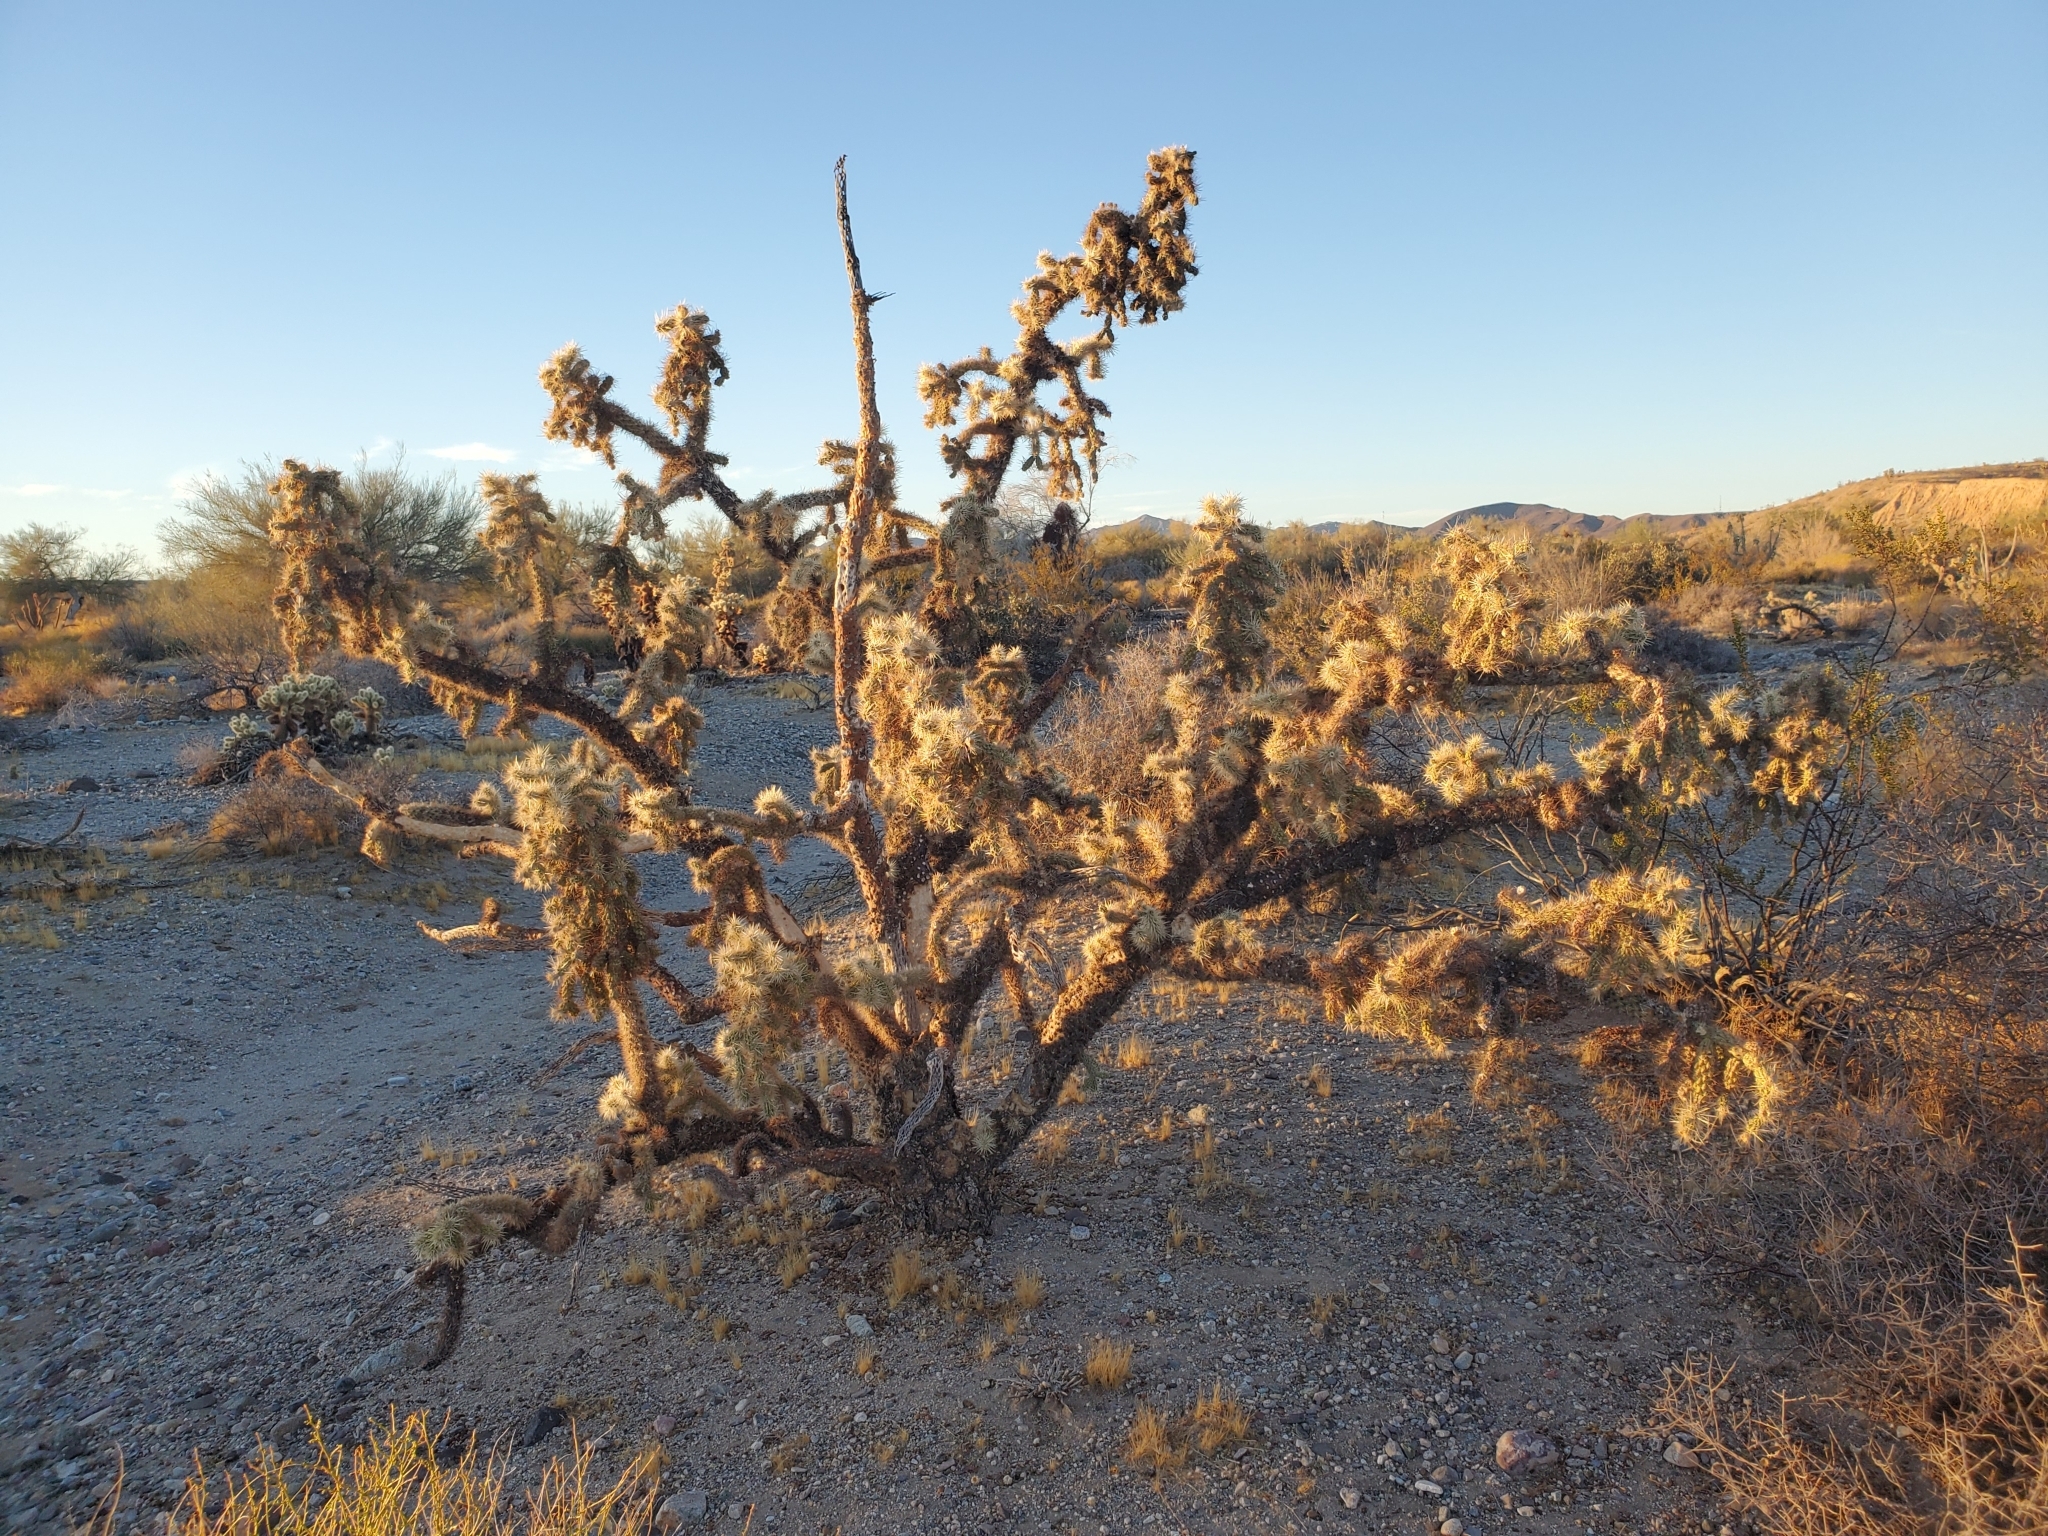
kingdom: Plantae
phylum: Tracheophyta
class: Magnoliopsida
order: Caryophyllales
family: Cactaceae
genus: Cylindropuntia
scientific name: Cylindropuntia munzii
